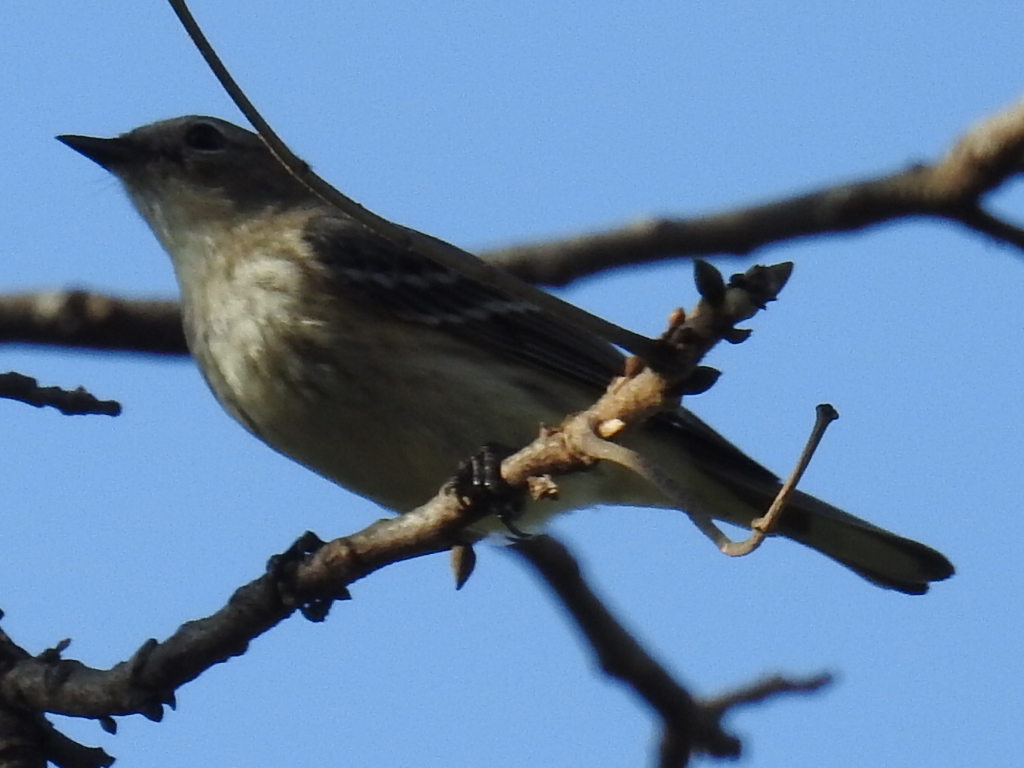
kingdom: Animalia
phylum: Chordata
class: Aves
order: Passeriformes
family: Parulidae
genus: Setophaga
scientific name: Setophaga coronata
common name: Myrtle warbler
